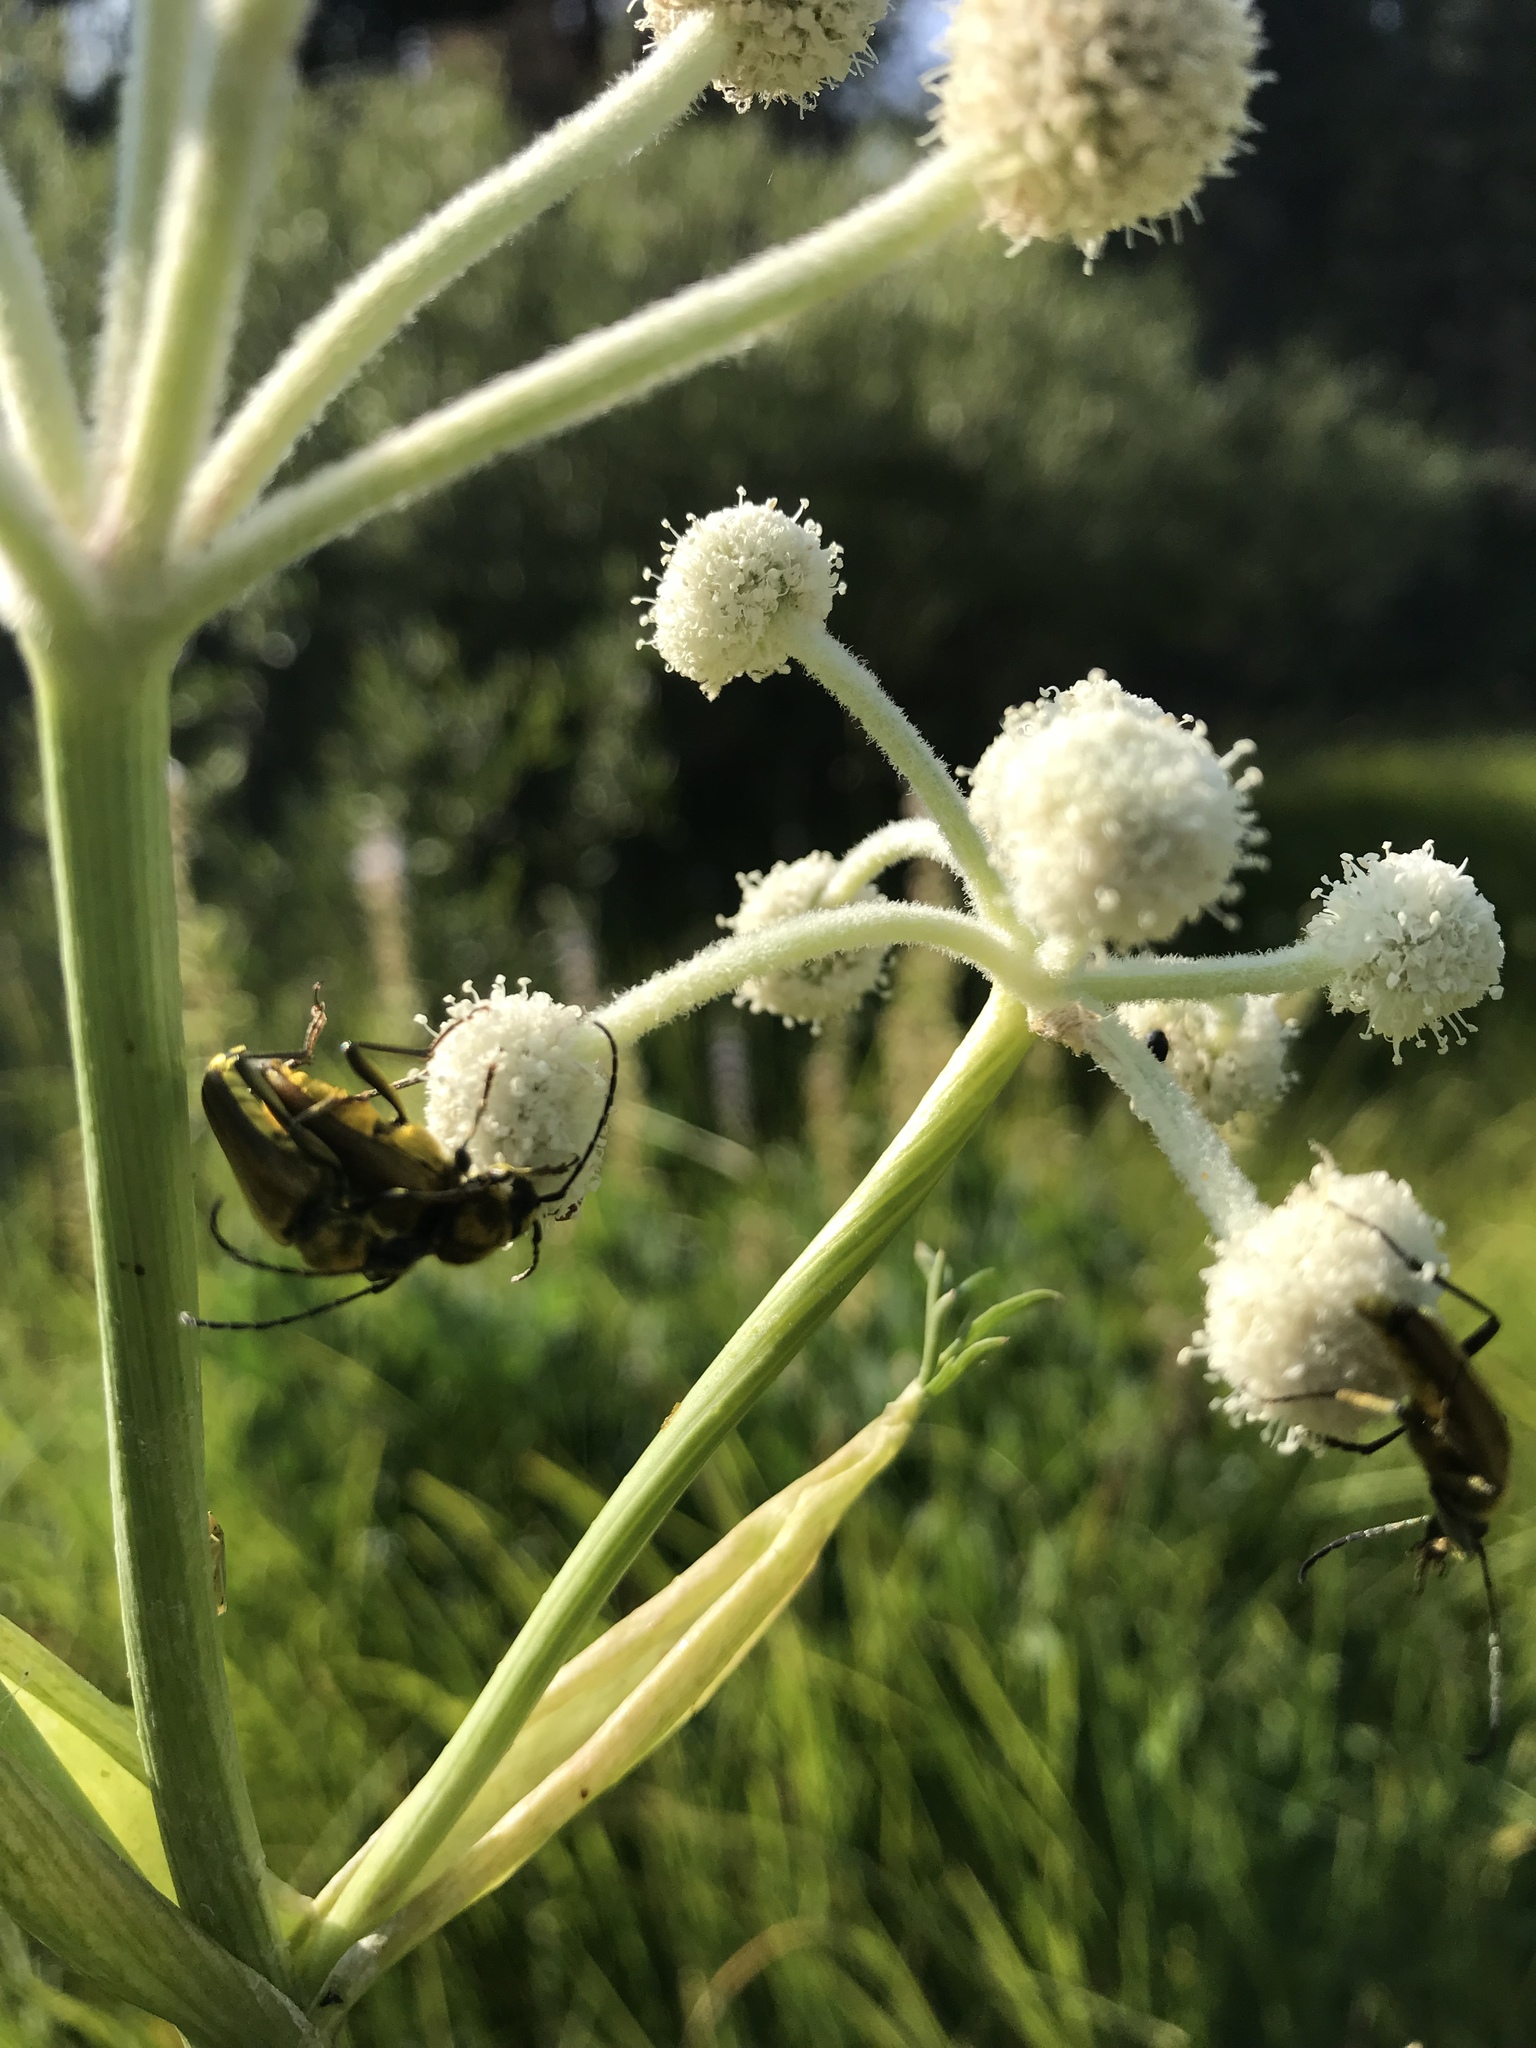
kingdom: Animalia
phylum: Arthropoda
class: Insecta
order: Coleoptera
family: Cerambycidae
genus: Cosmosalia
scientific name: Cosmosalia chrysocoma
